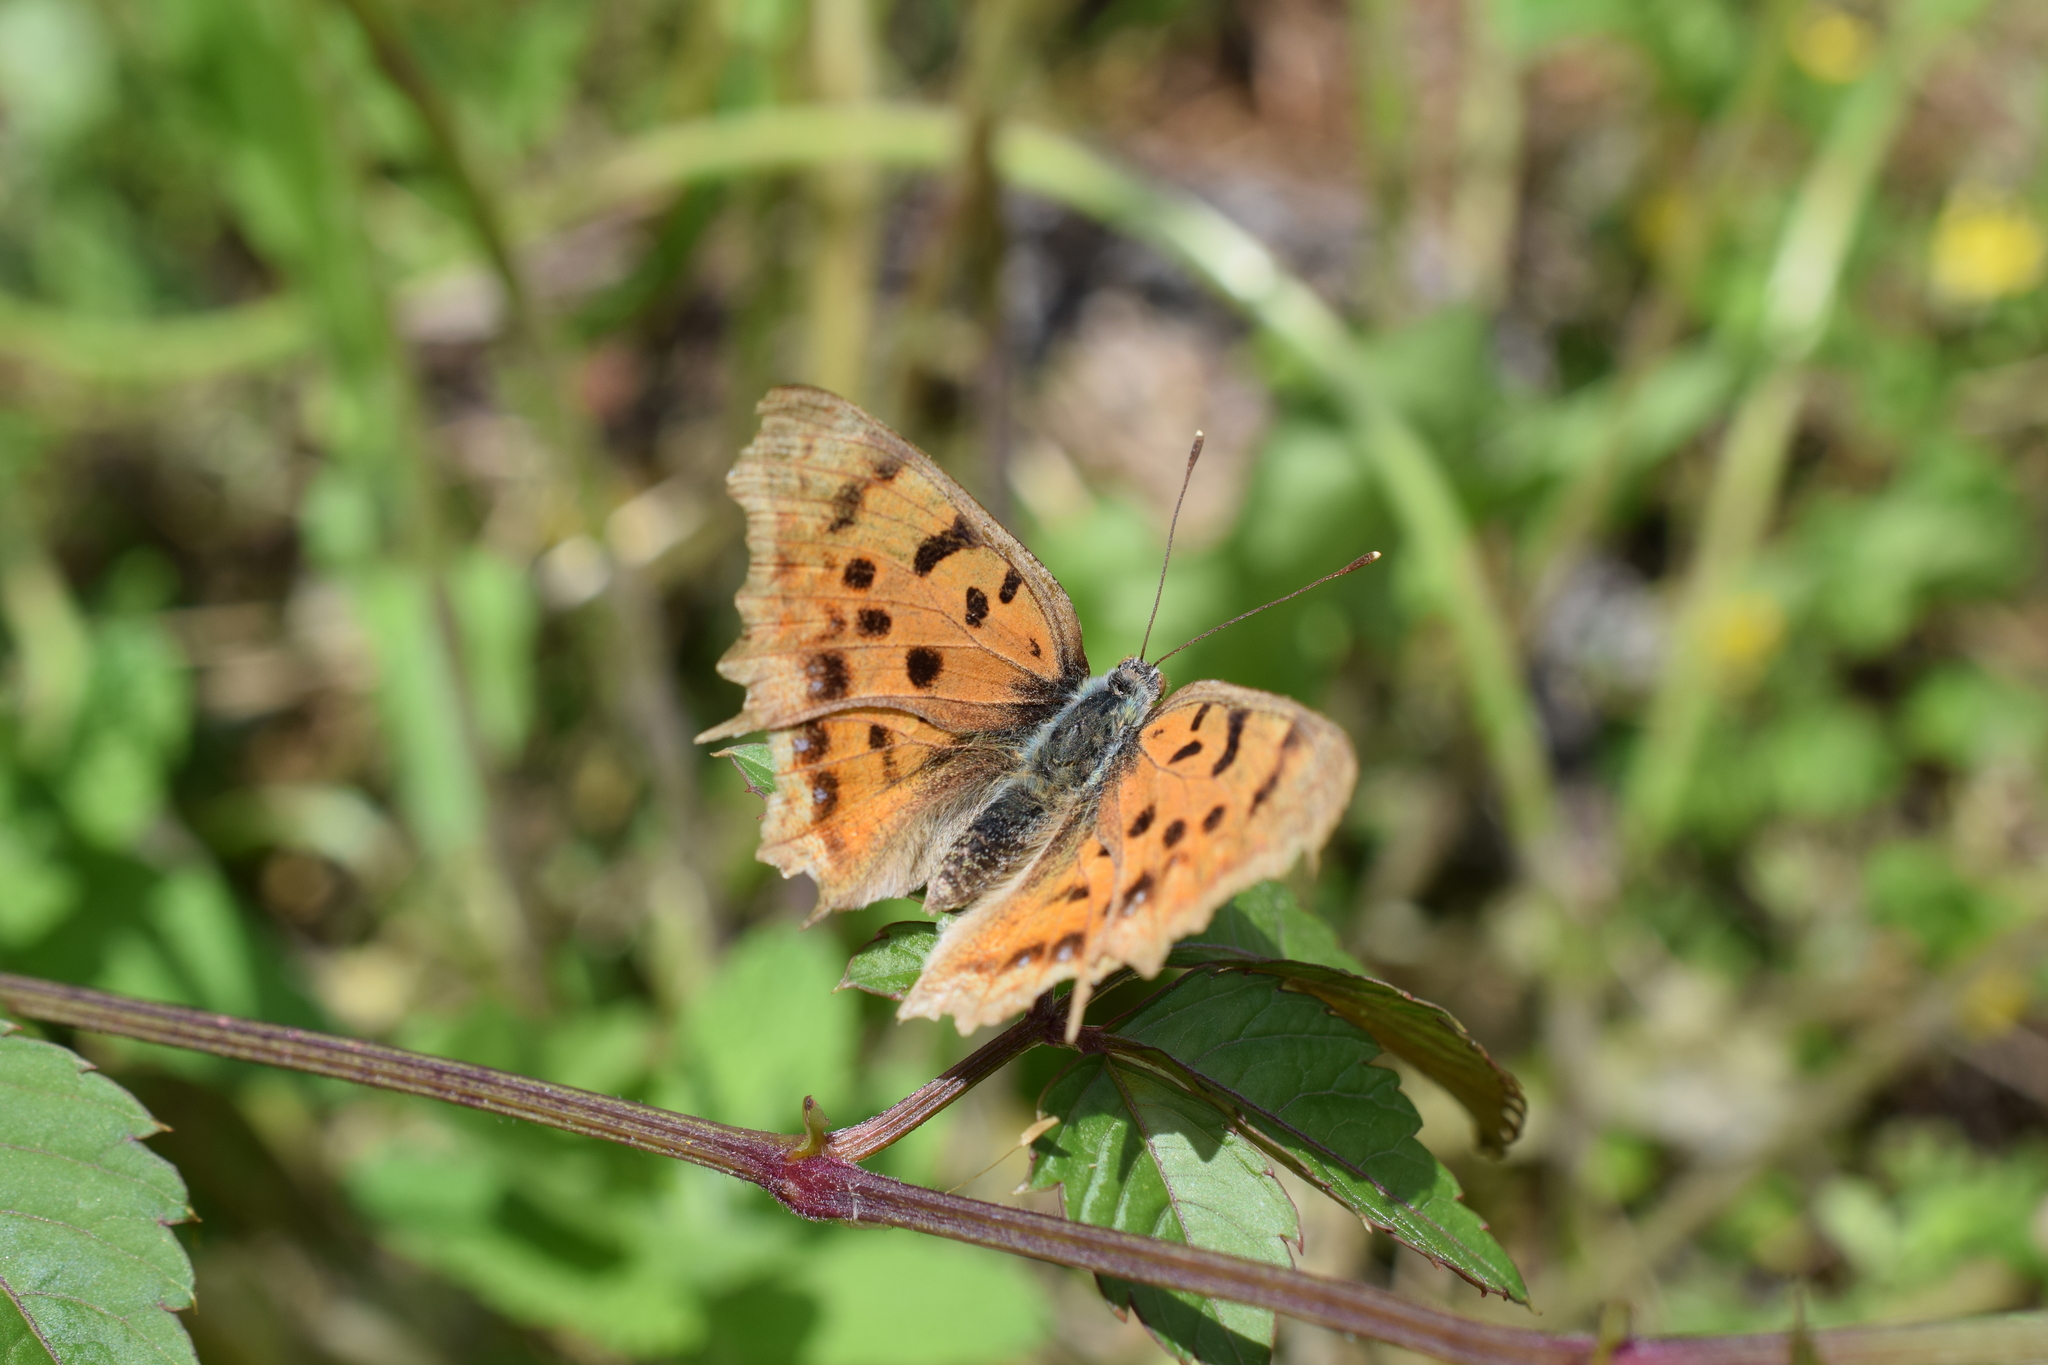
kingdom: Animalia
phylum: Arthropoda
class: Insecta
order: Lepidoptera
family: Nymphalidae
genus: Polygonia
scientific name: Polygonia c-aureum
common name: Asian comma
